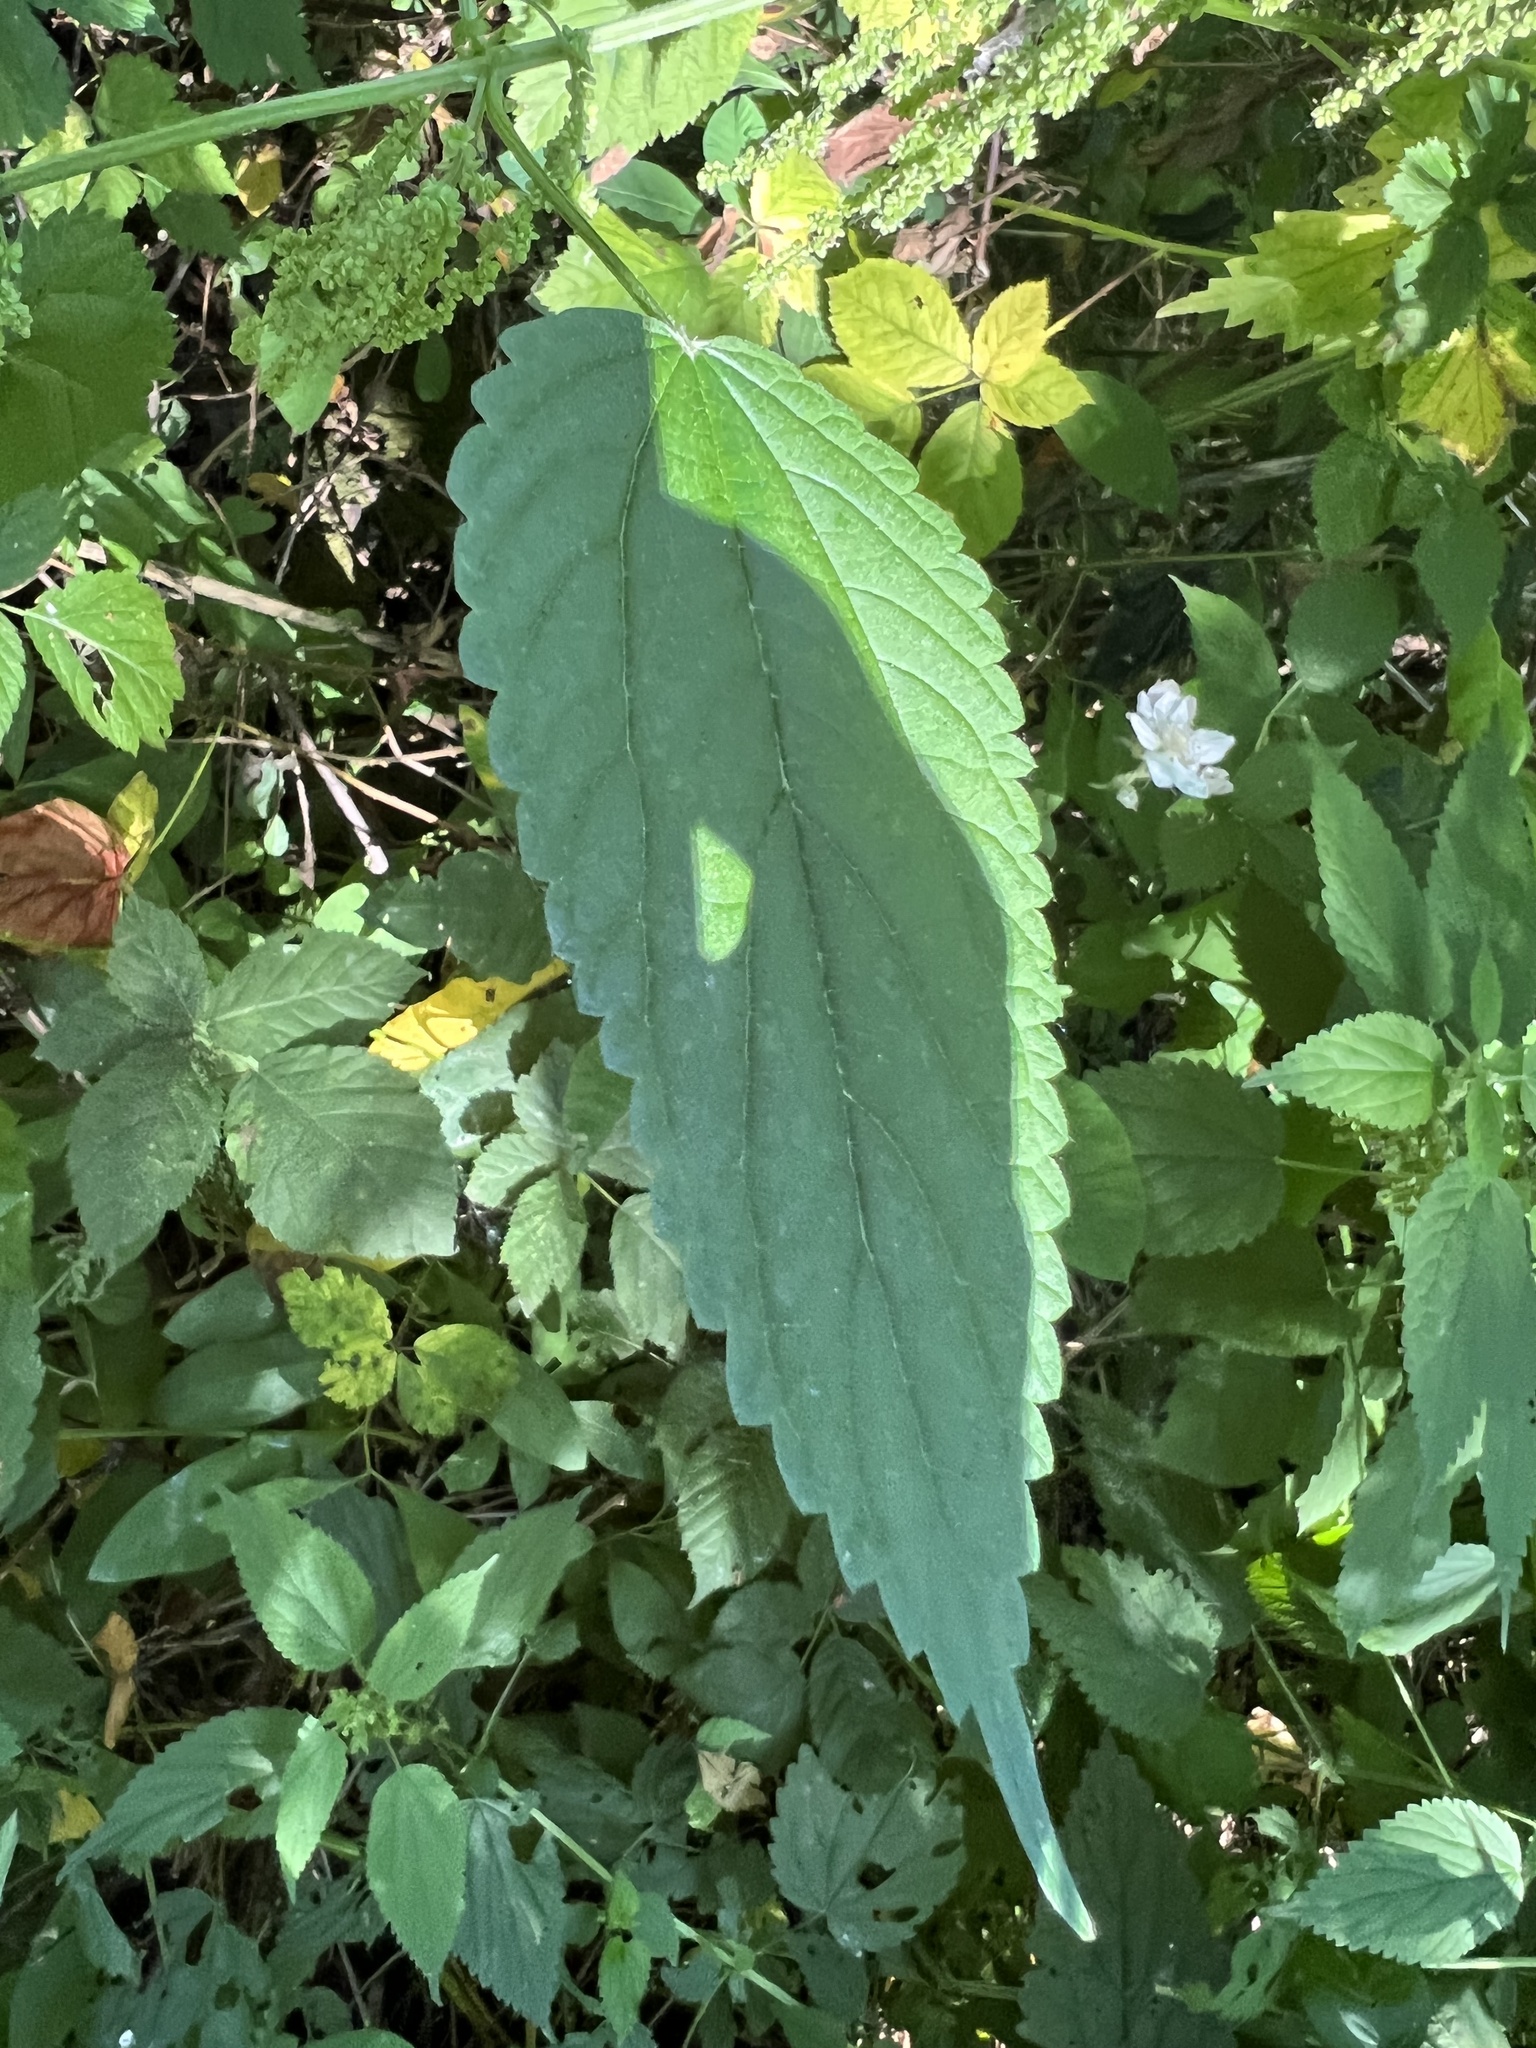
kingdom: Plantae
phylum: Tracheophyta
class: Magnoliopsida
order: Rosales
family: Urticaceae
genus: Urtica
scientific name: Urtica gracilis
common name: Slender stinging nettle
